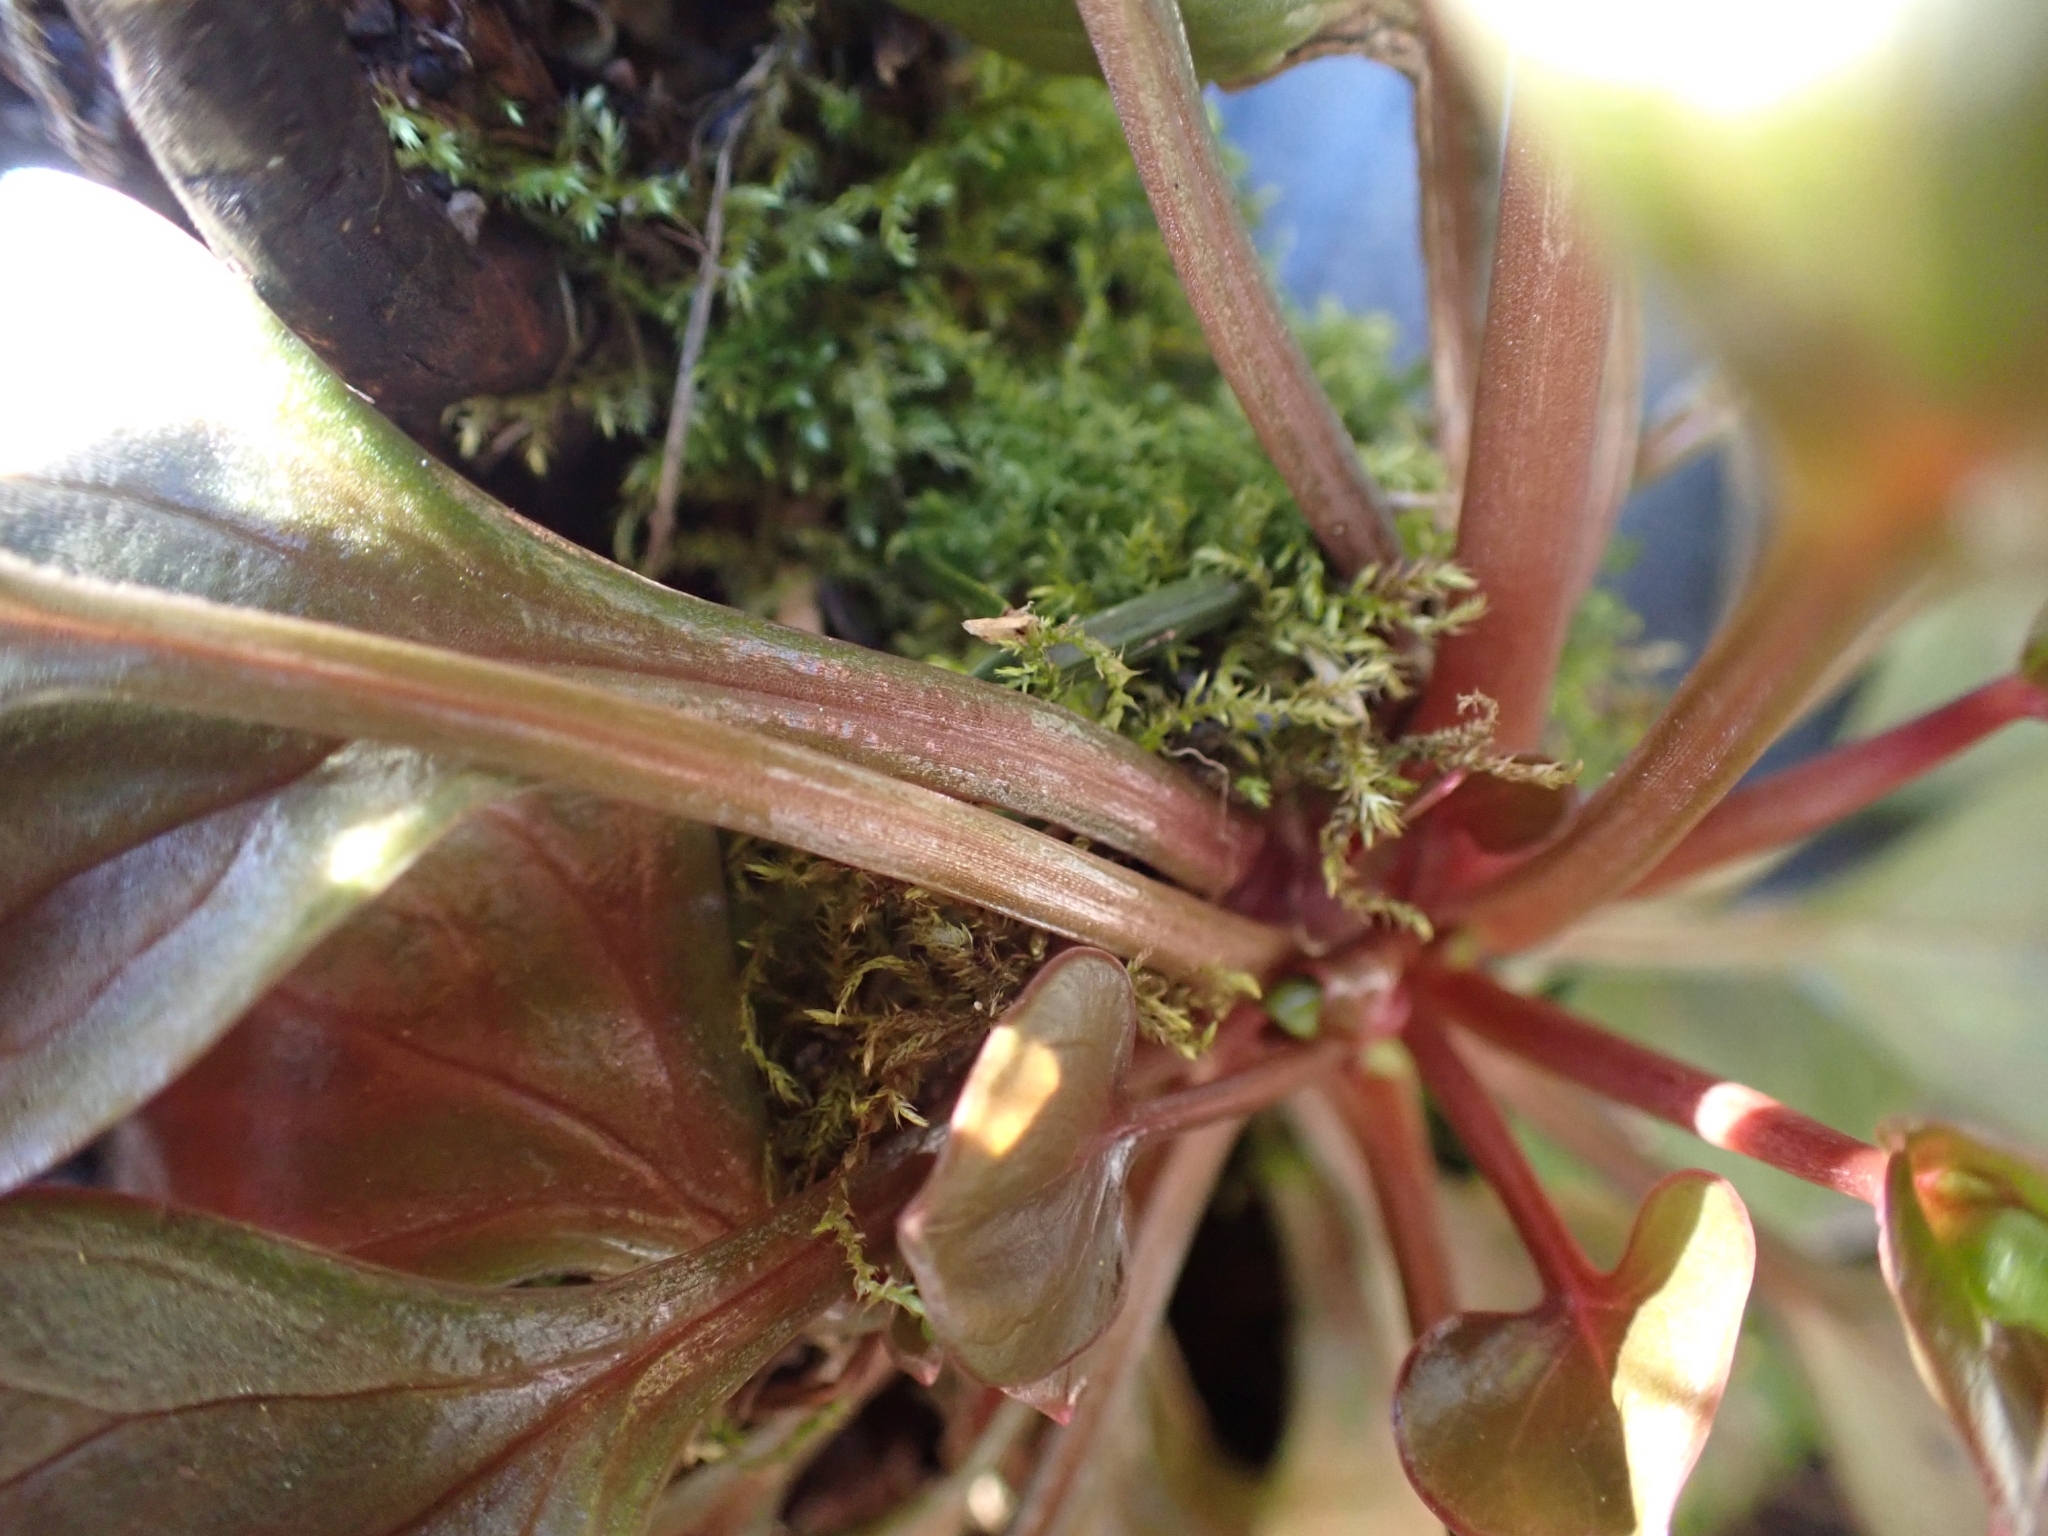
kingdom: Plantae
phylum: Tracheophyta
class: Magnoliopsida
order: Caryophyllales
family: Montiaceae
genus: Claytonia
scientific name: Claytonia rubra
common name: Erubescent miner's-lettuce
